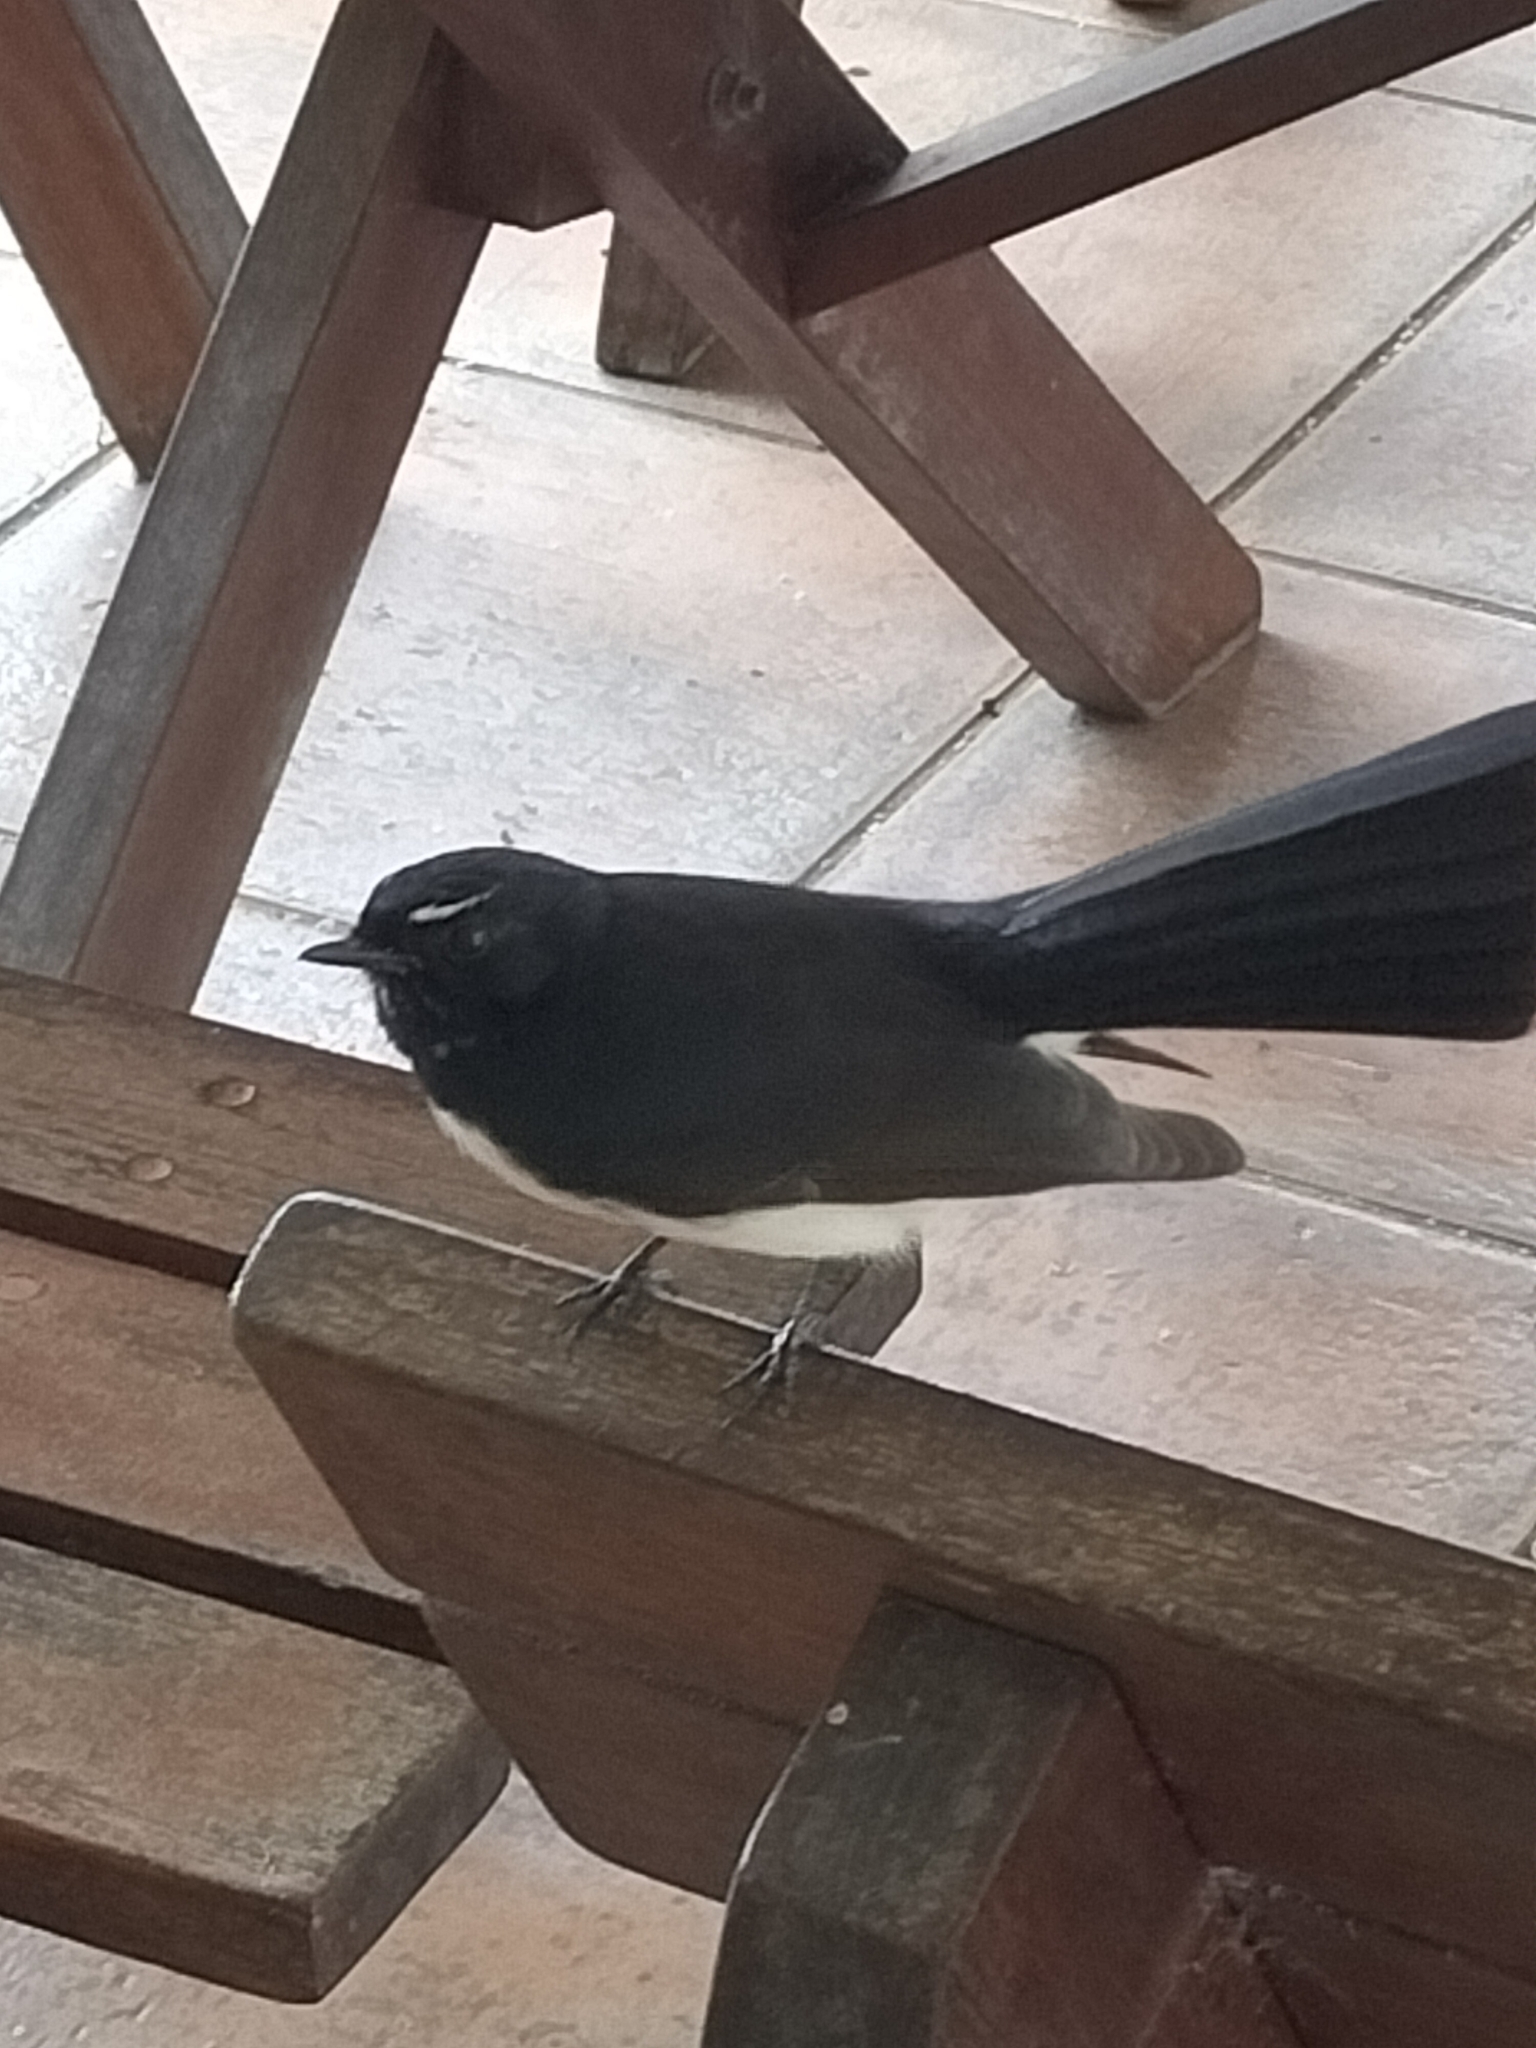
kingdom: Animalia
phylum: Chordata
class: Aves
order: Passeriformes
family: Rhipiduridae
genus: Rhipidura
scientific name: Rhipidura leucophrys
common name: Willie wagtail
